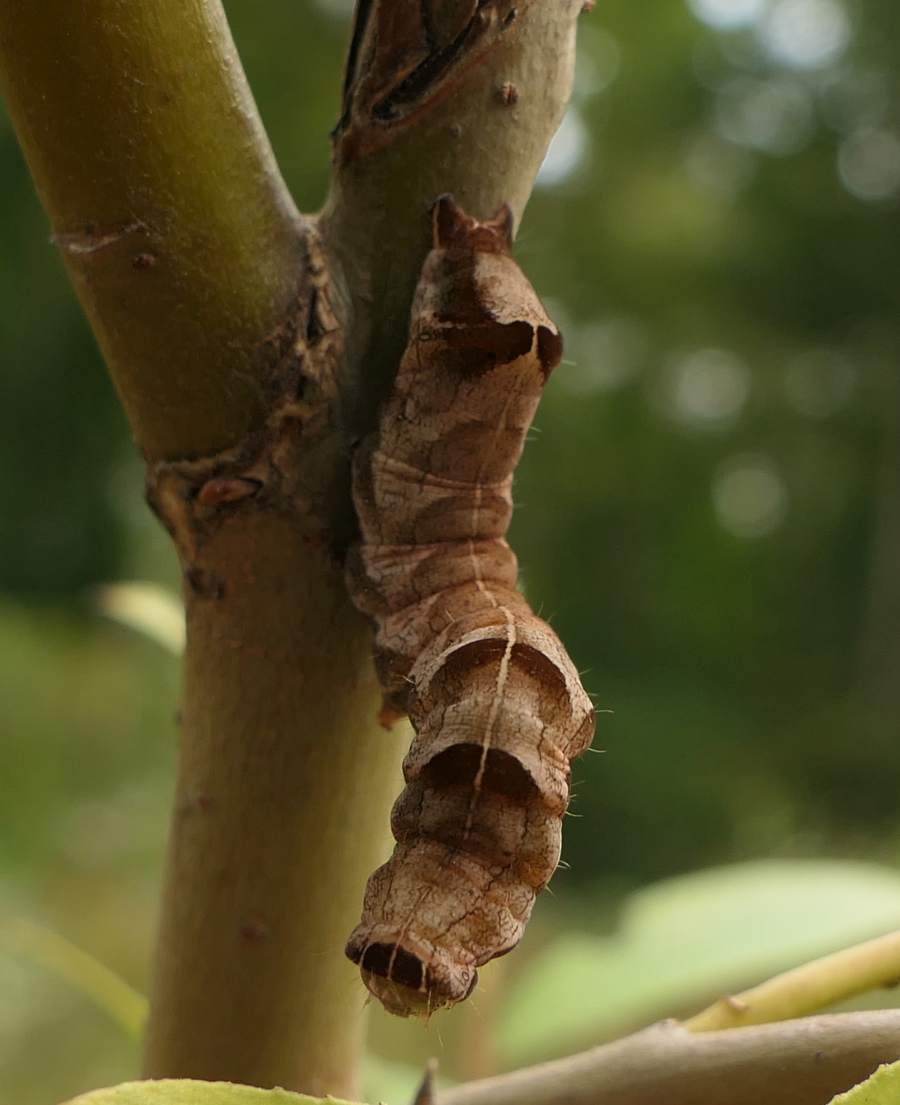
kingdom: Animalia
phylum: Arthropoda
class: Insecta
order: Lepidoptera
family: Noctuidae
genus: Melanchra
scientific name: Melanchra adjuncta
